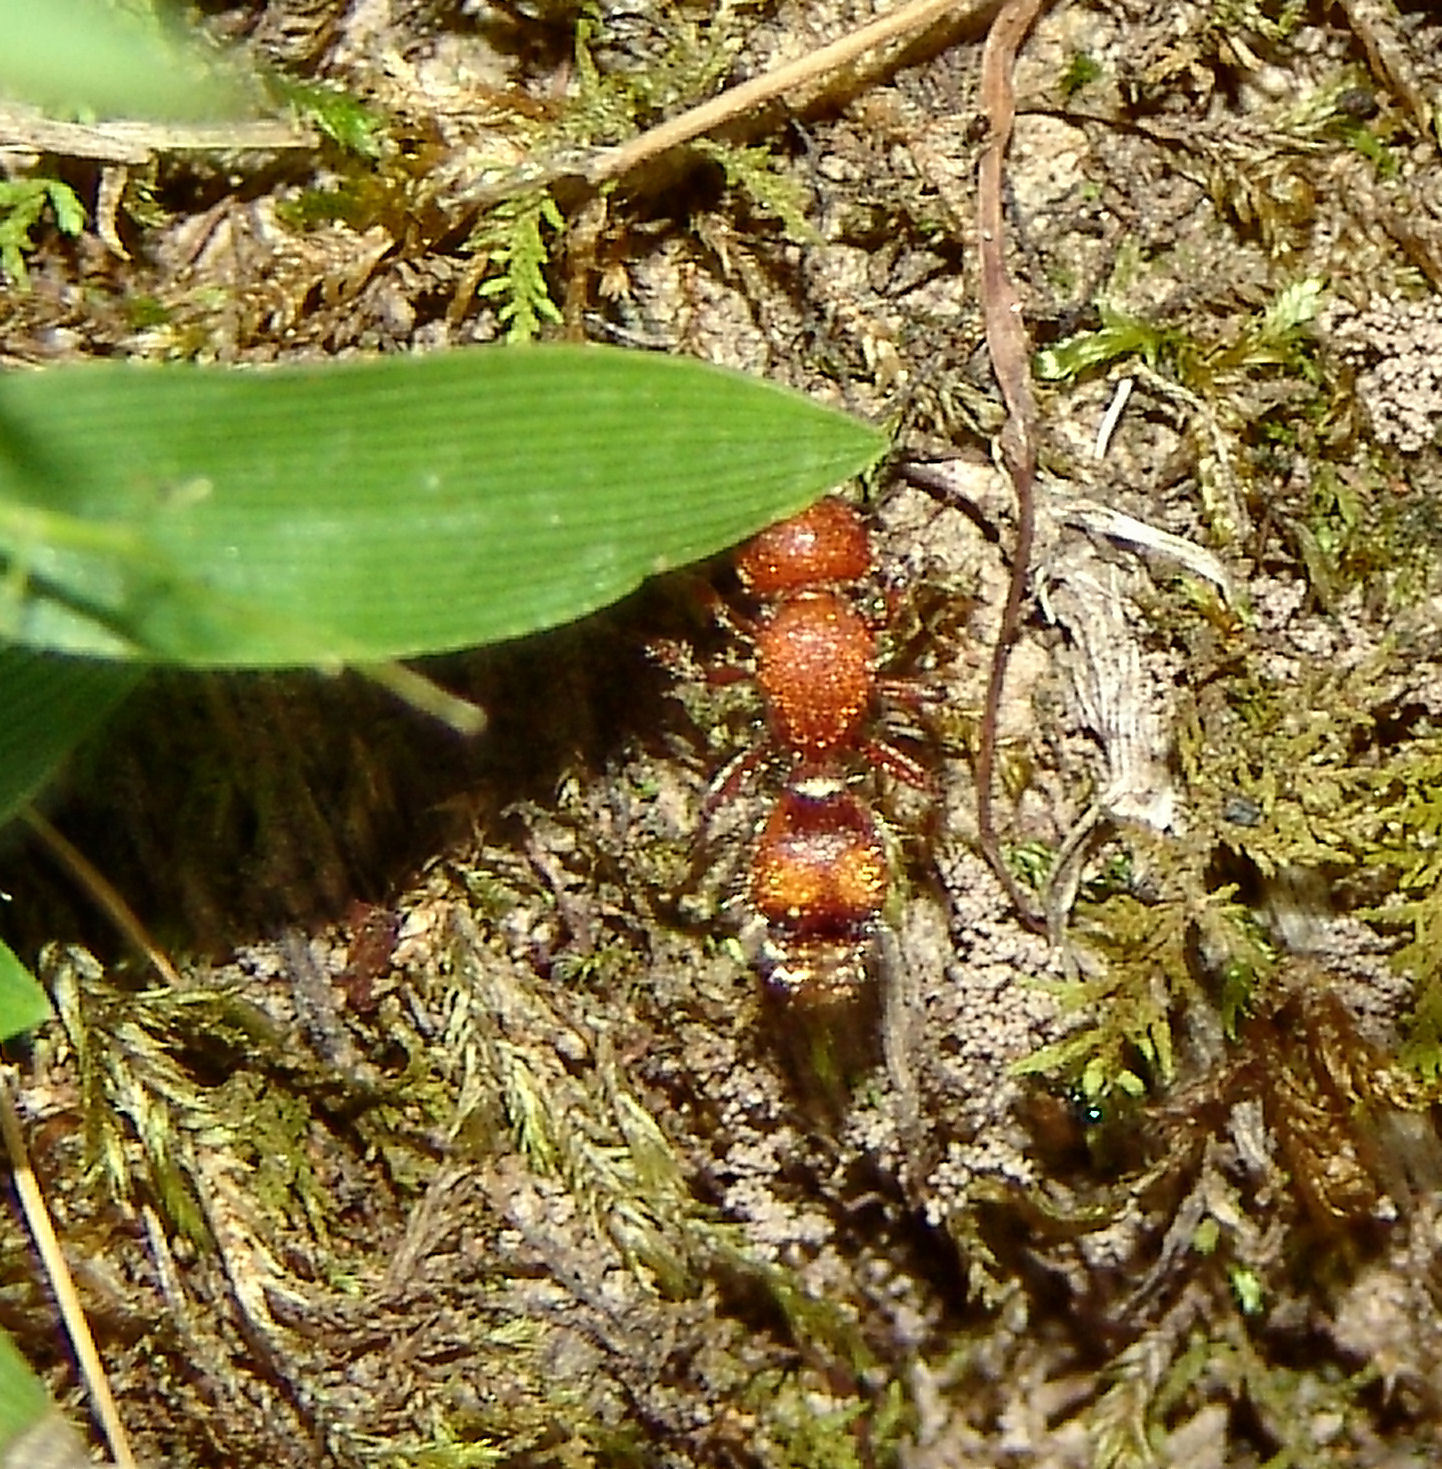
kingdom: Animalia
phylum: Arthropoda
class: Insecta
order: Hymenoptera
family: Mutillidae
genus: Dasymutilla
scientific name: Dasymutilla
